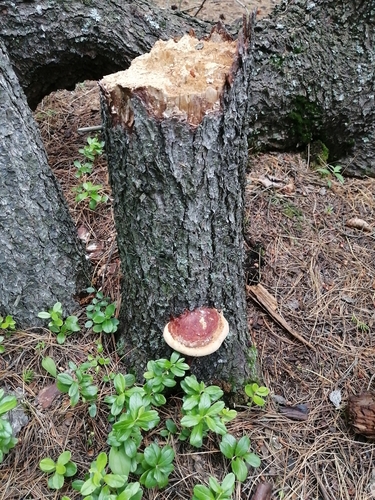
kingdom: Fungi
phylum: Basidiomycota
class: Agaricomycetes
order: Polyporales
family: Fomitopsidaceae
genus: Fomitopsis
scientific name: Fomitopsis pinicola
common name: Red-belted bracket
